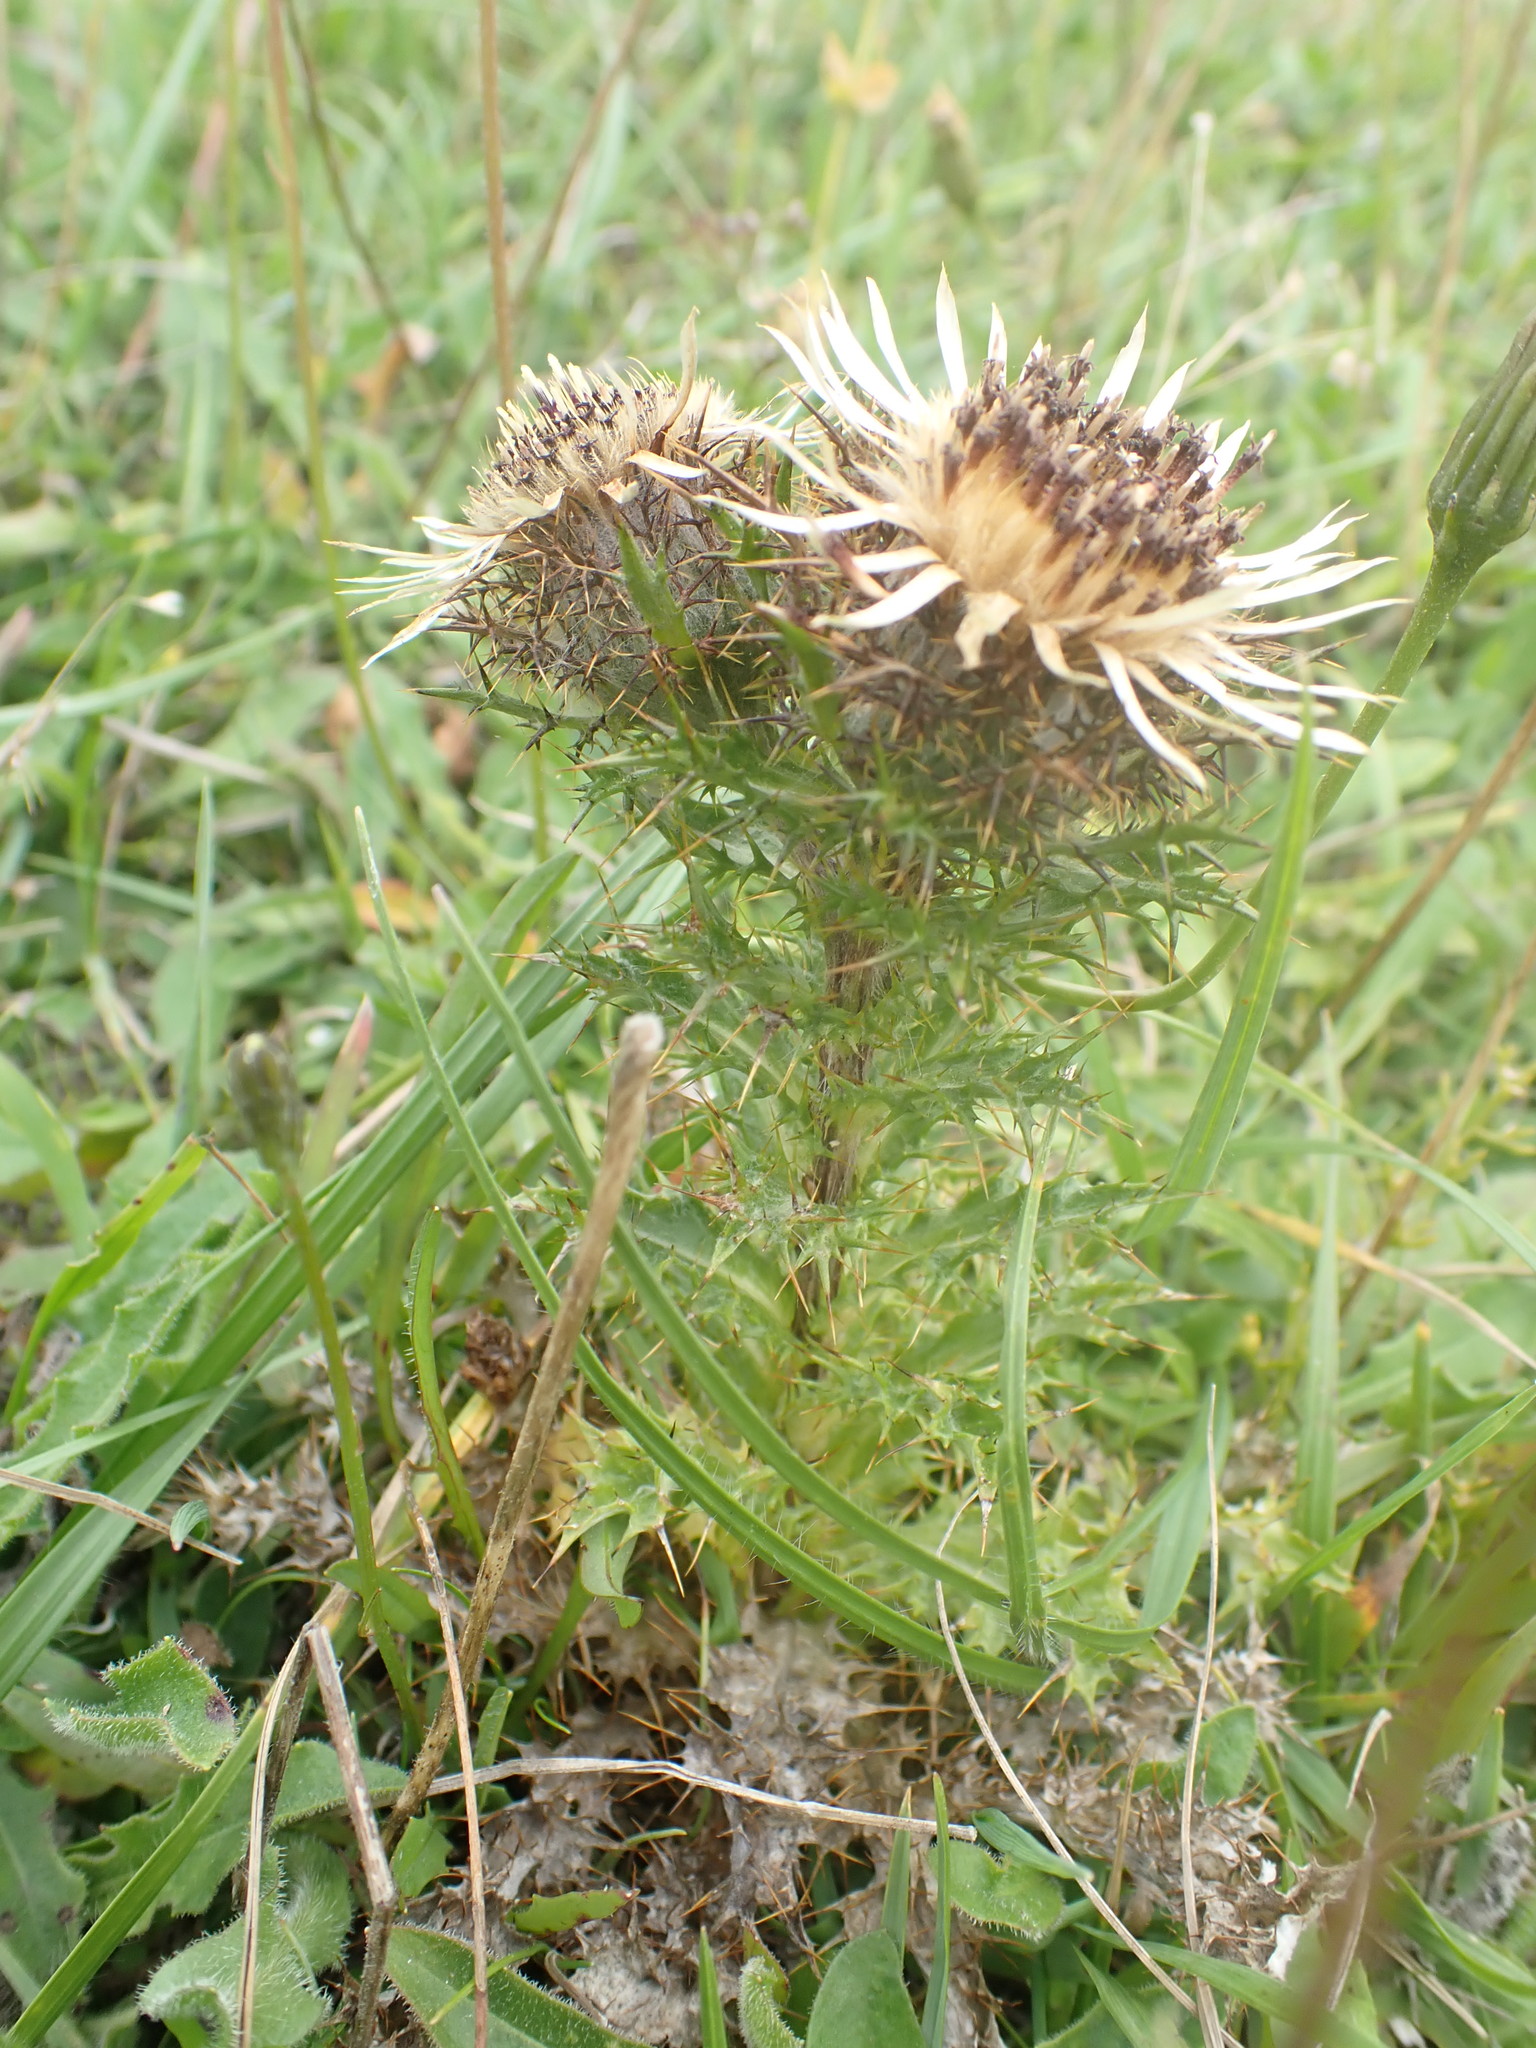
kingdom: Plantae
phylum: Tracheophyta
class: Magnoliopsida
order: Asterales
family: Asteraceae
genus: Carlina
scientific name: Carlina vulgaris
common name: Carline thistle
